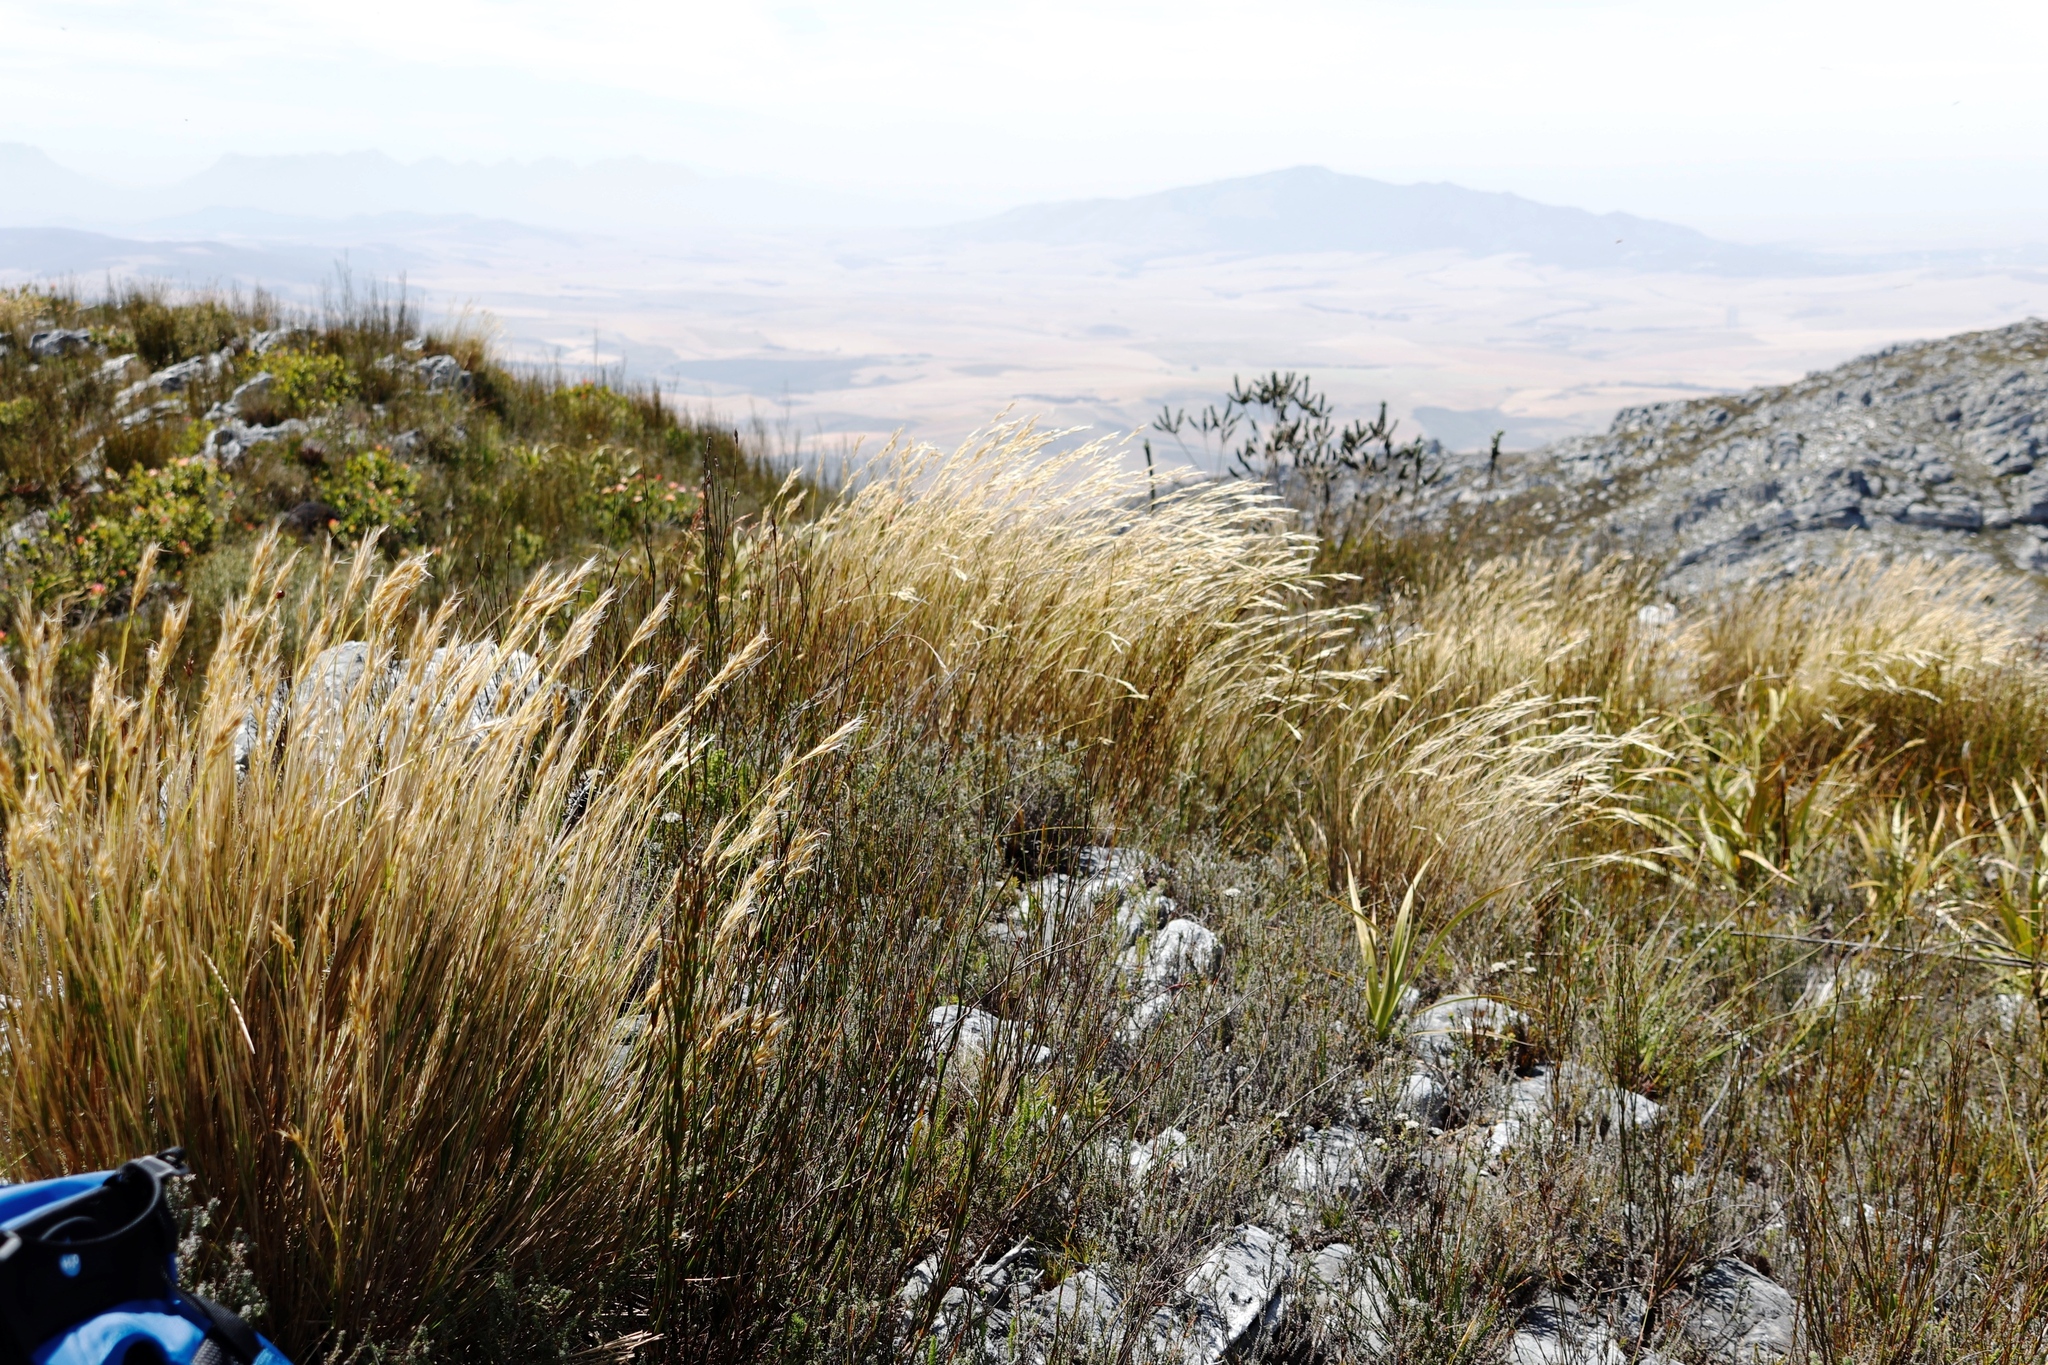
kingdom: Plantae
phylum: Tracheophyta
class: Liliopsida
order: Poales
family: Poaceae
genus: Pentameris
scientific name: Pentameris macrocalycina
